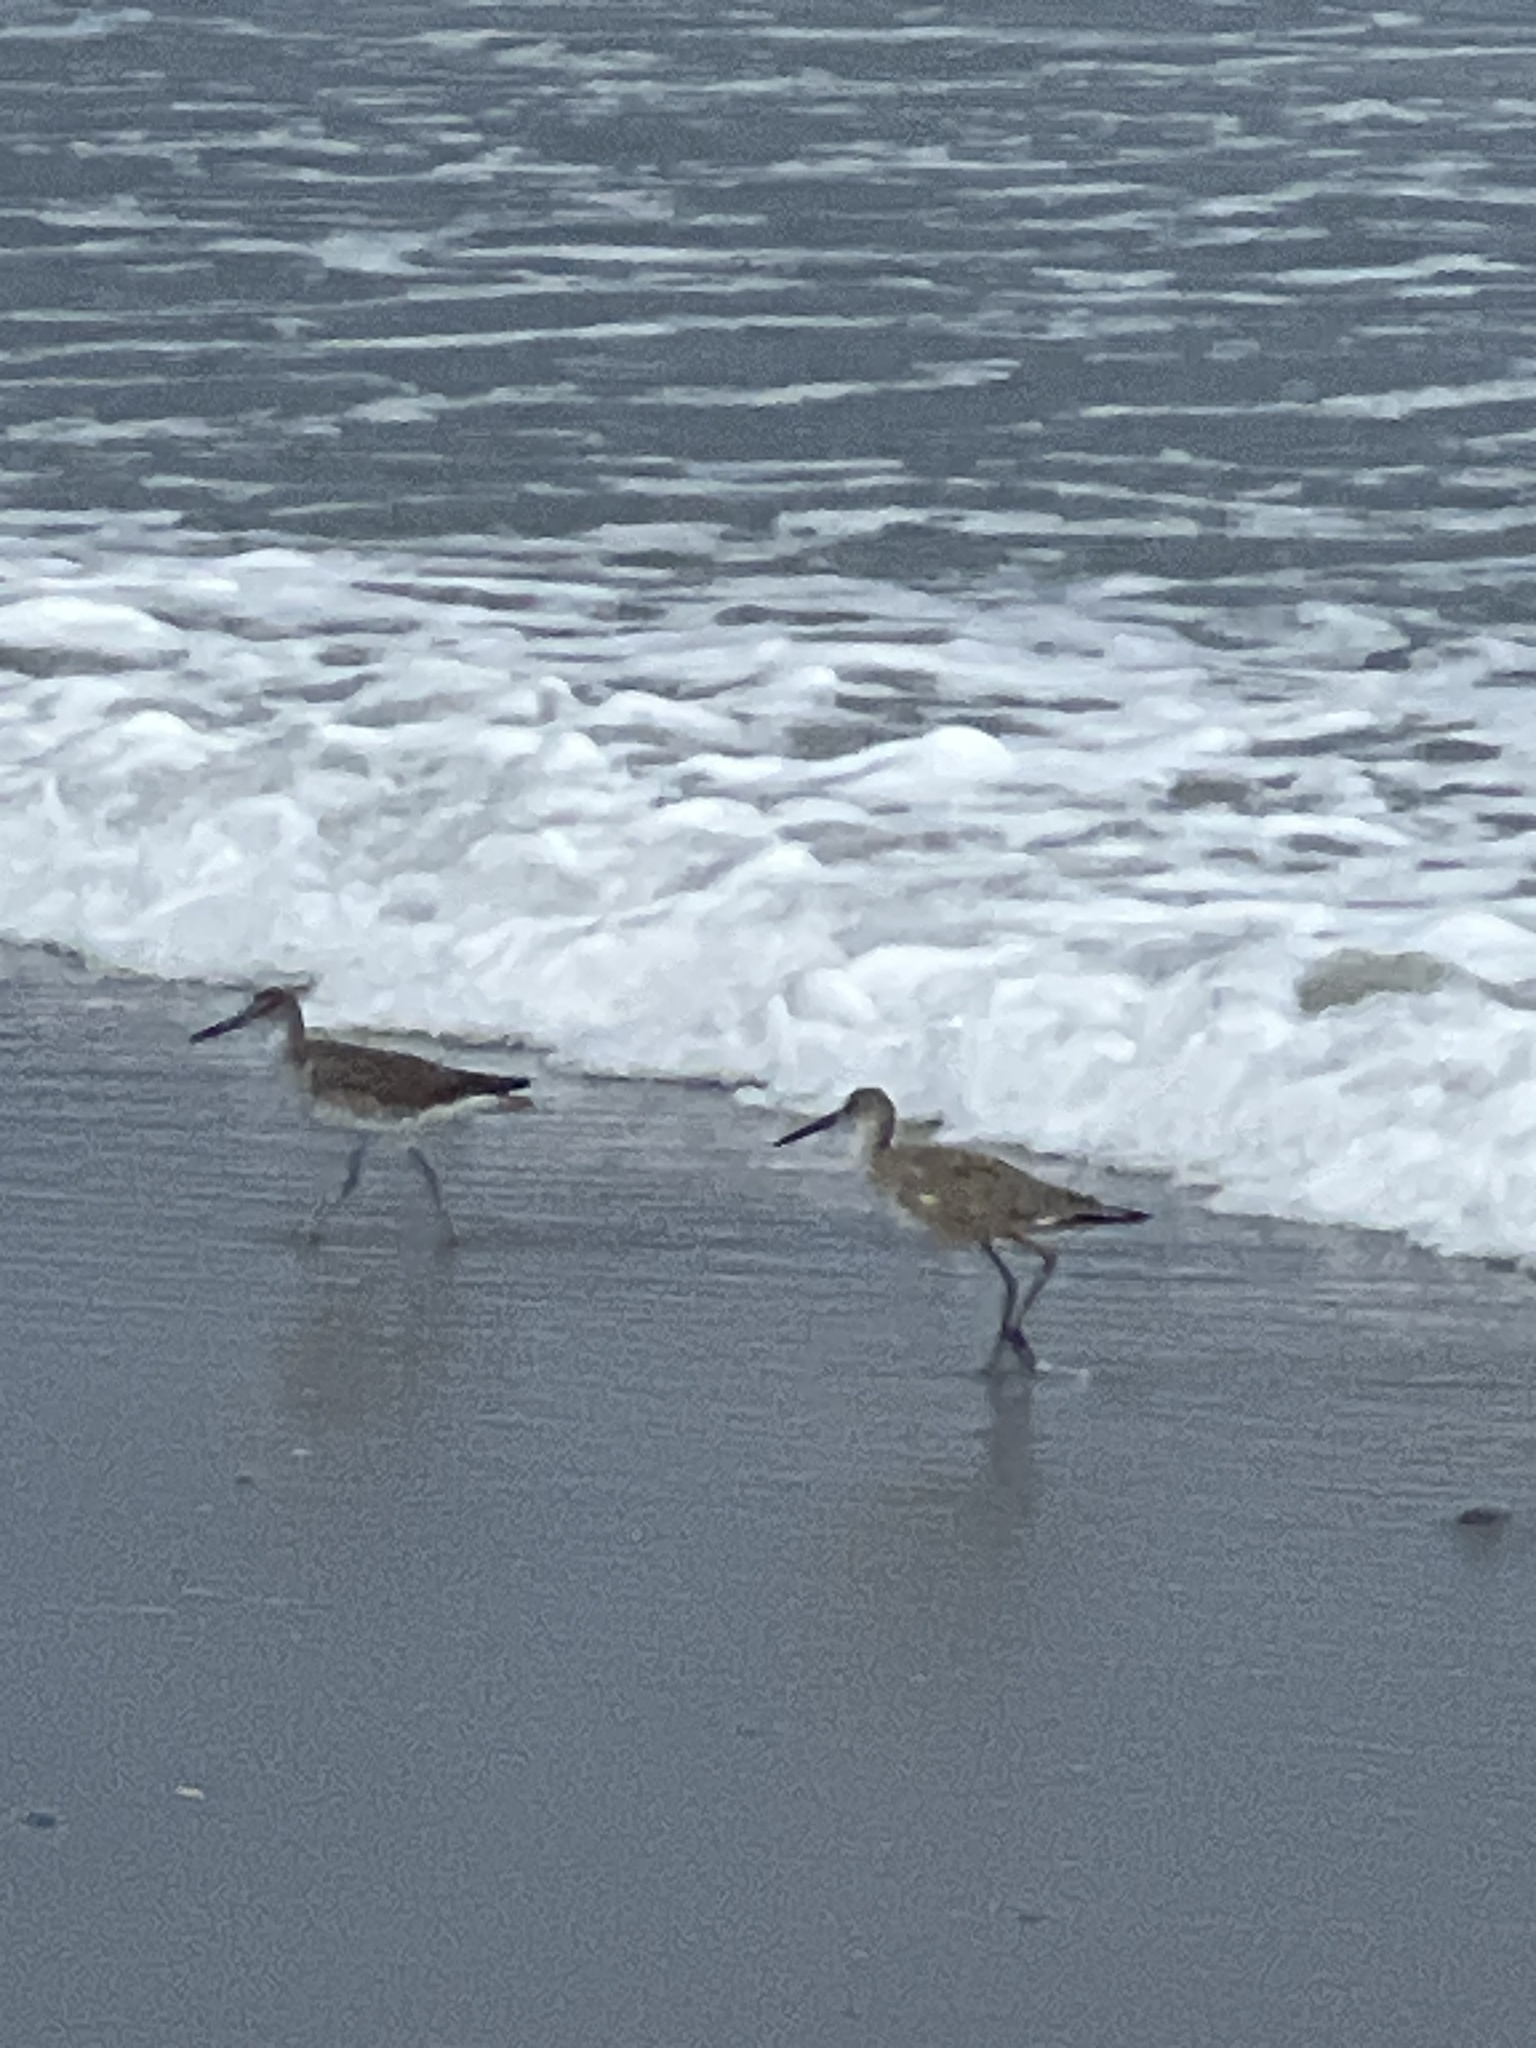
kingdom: Animalia
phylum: Chordata
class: Aves
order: Charadriiformes
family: Scolopacidae
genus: Tringa
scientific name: Tringa semipalmata
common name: Willet
